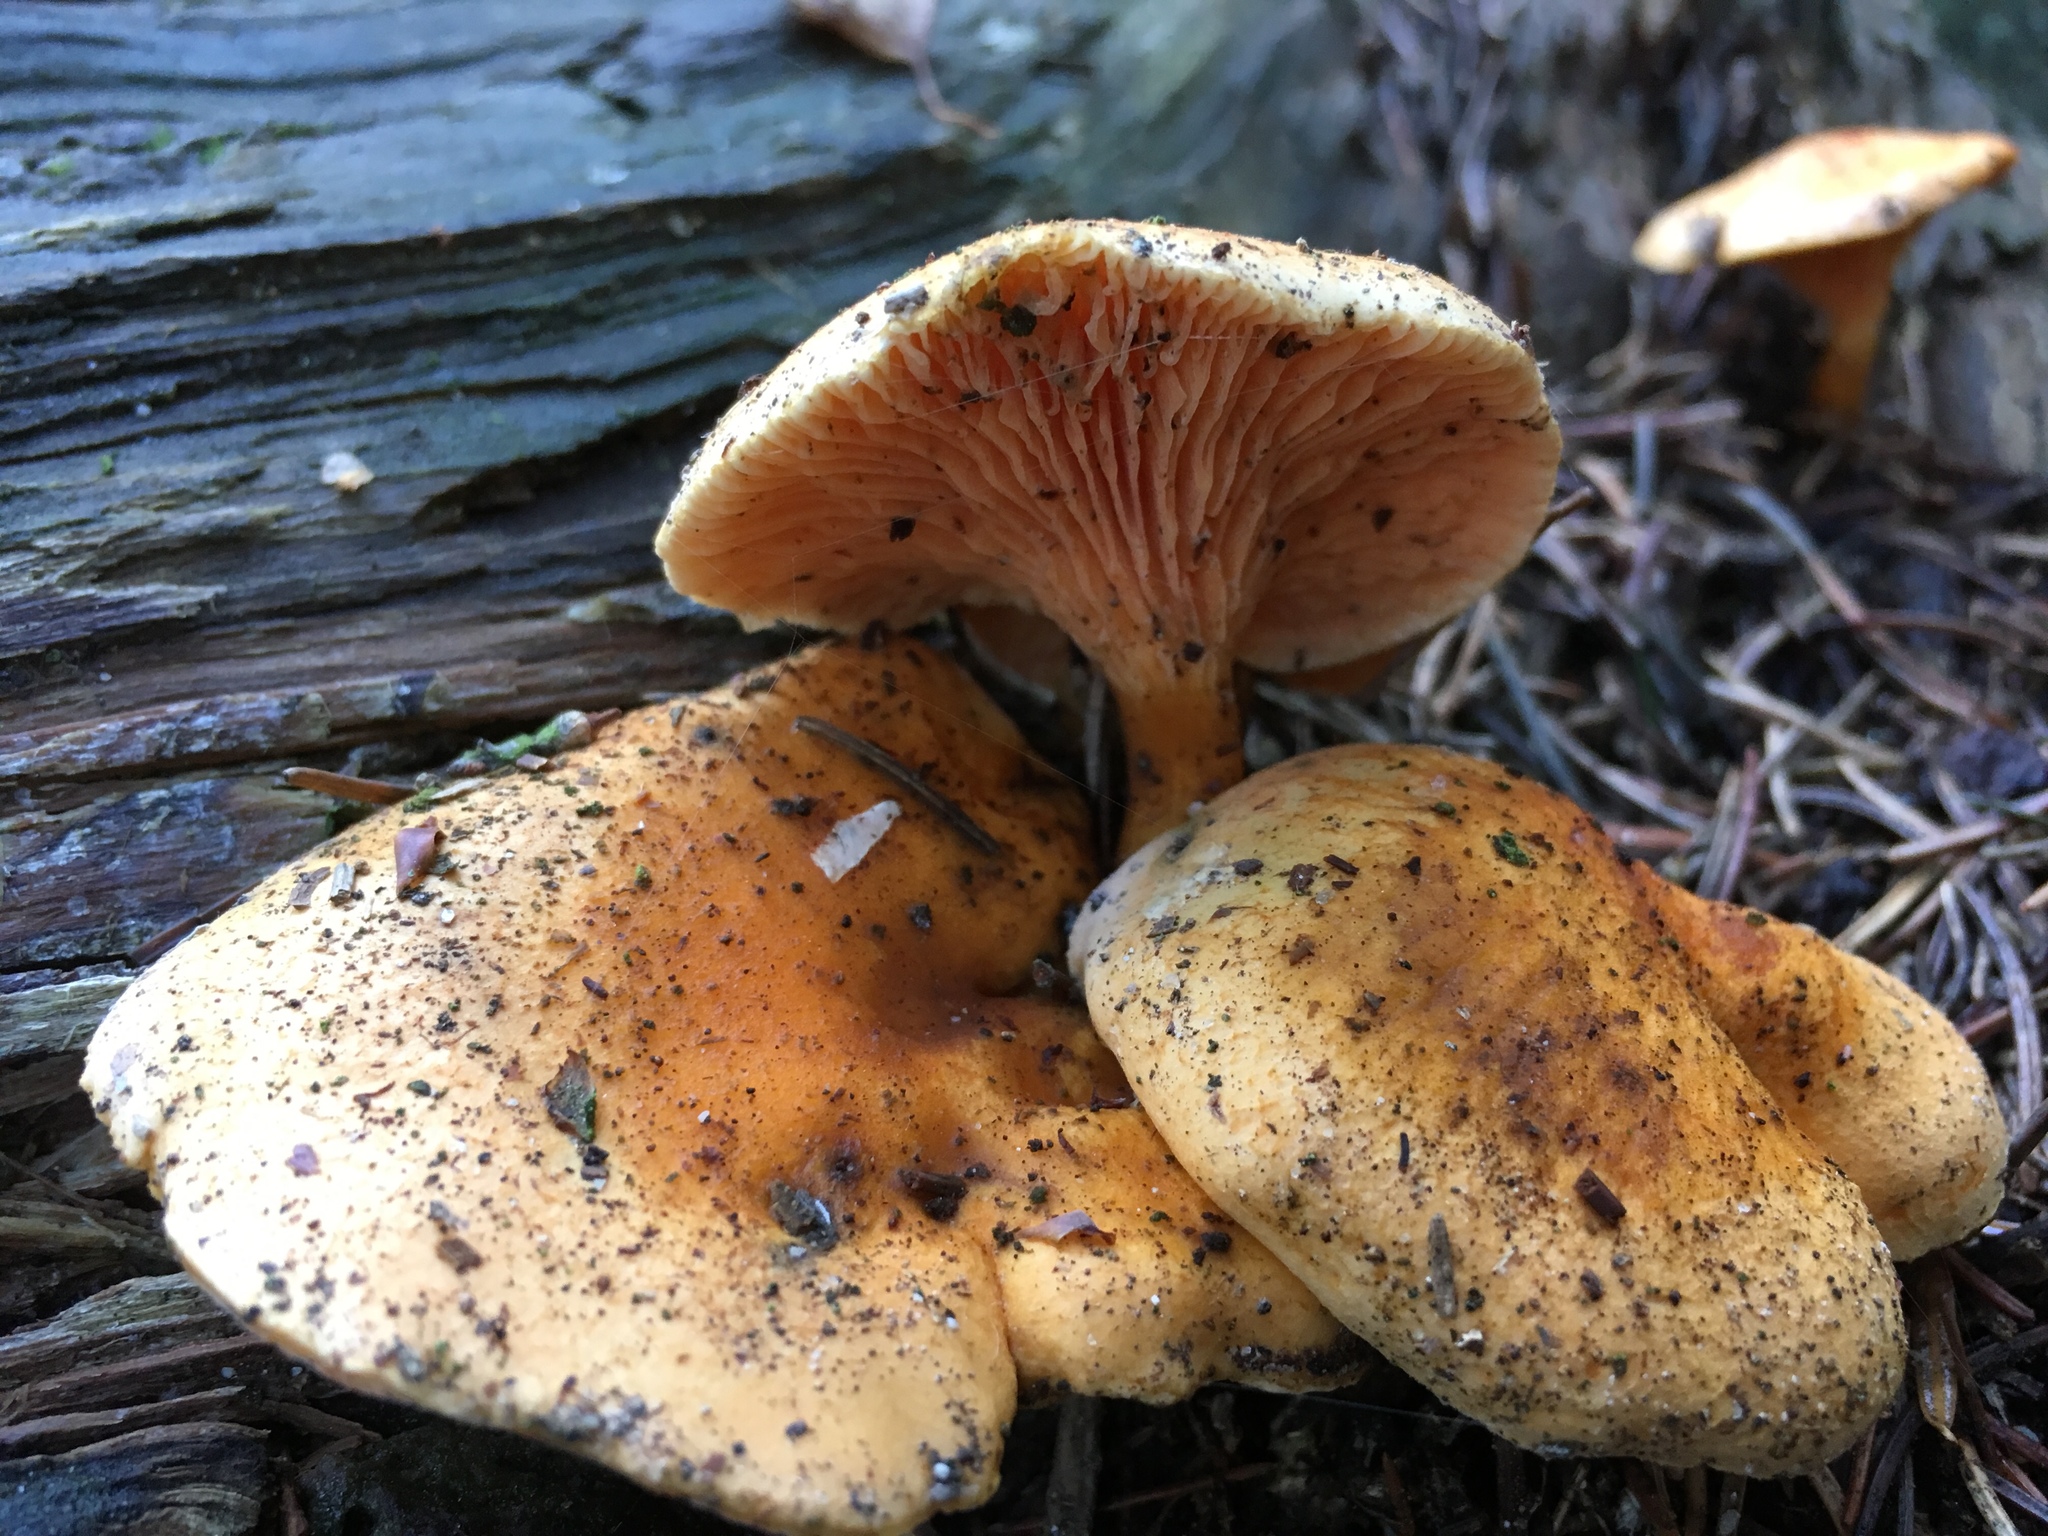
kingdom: Fungi
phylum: Basidiomycota
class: Agaricomycetes
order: Boletales
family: Hygrophoropsidaceae
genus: Hygrophoropsis
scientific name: Hygrophoropsis aurantiaca
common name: False chanterelle
